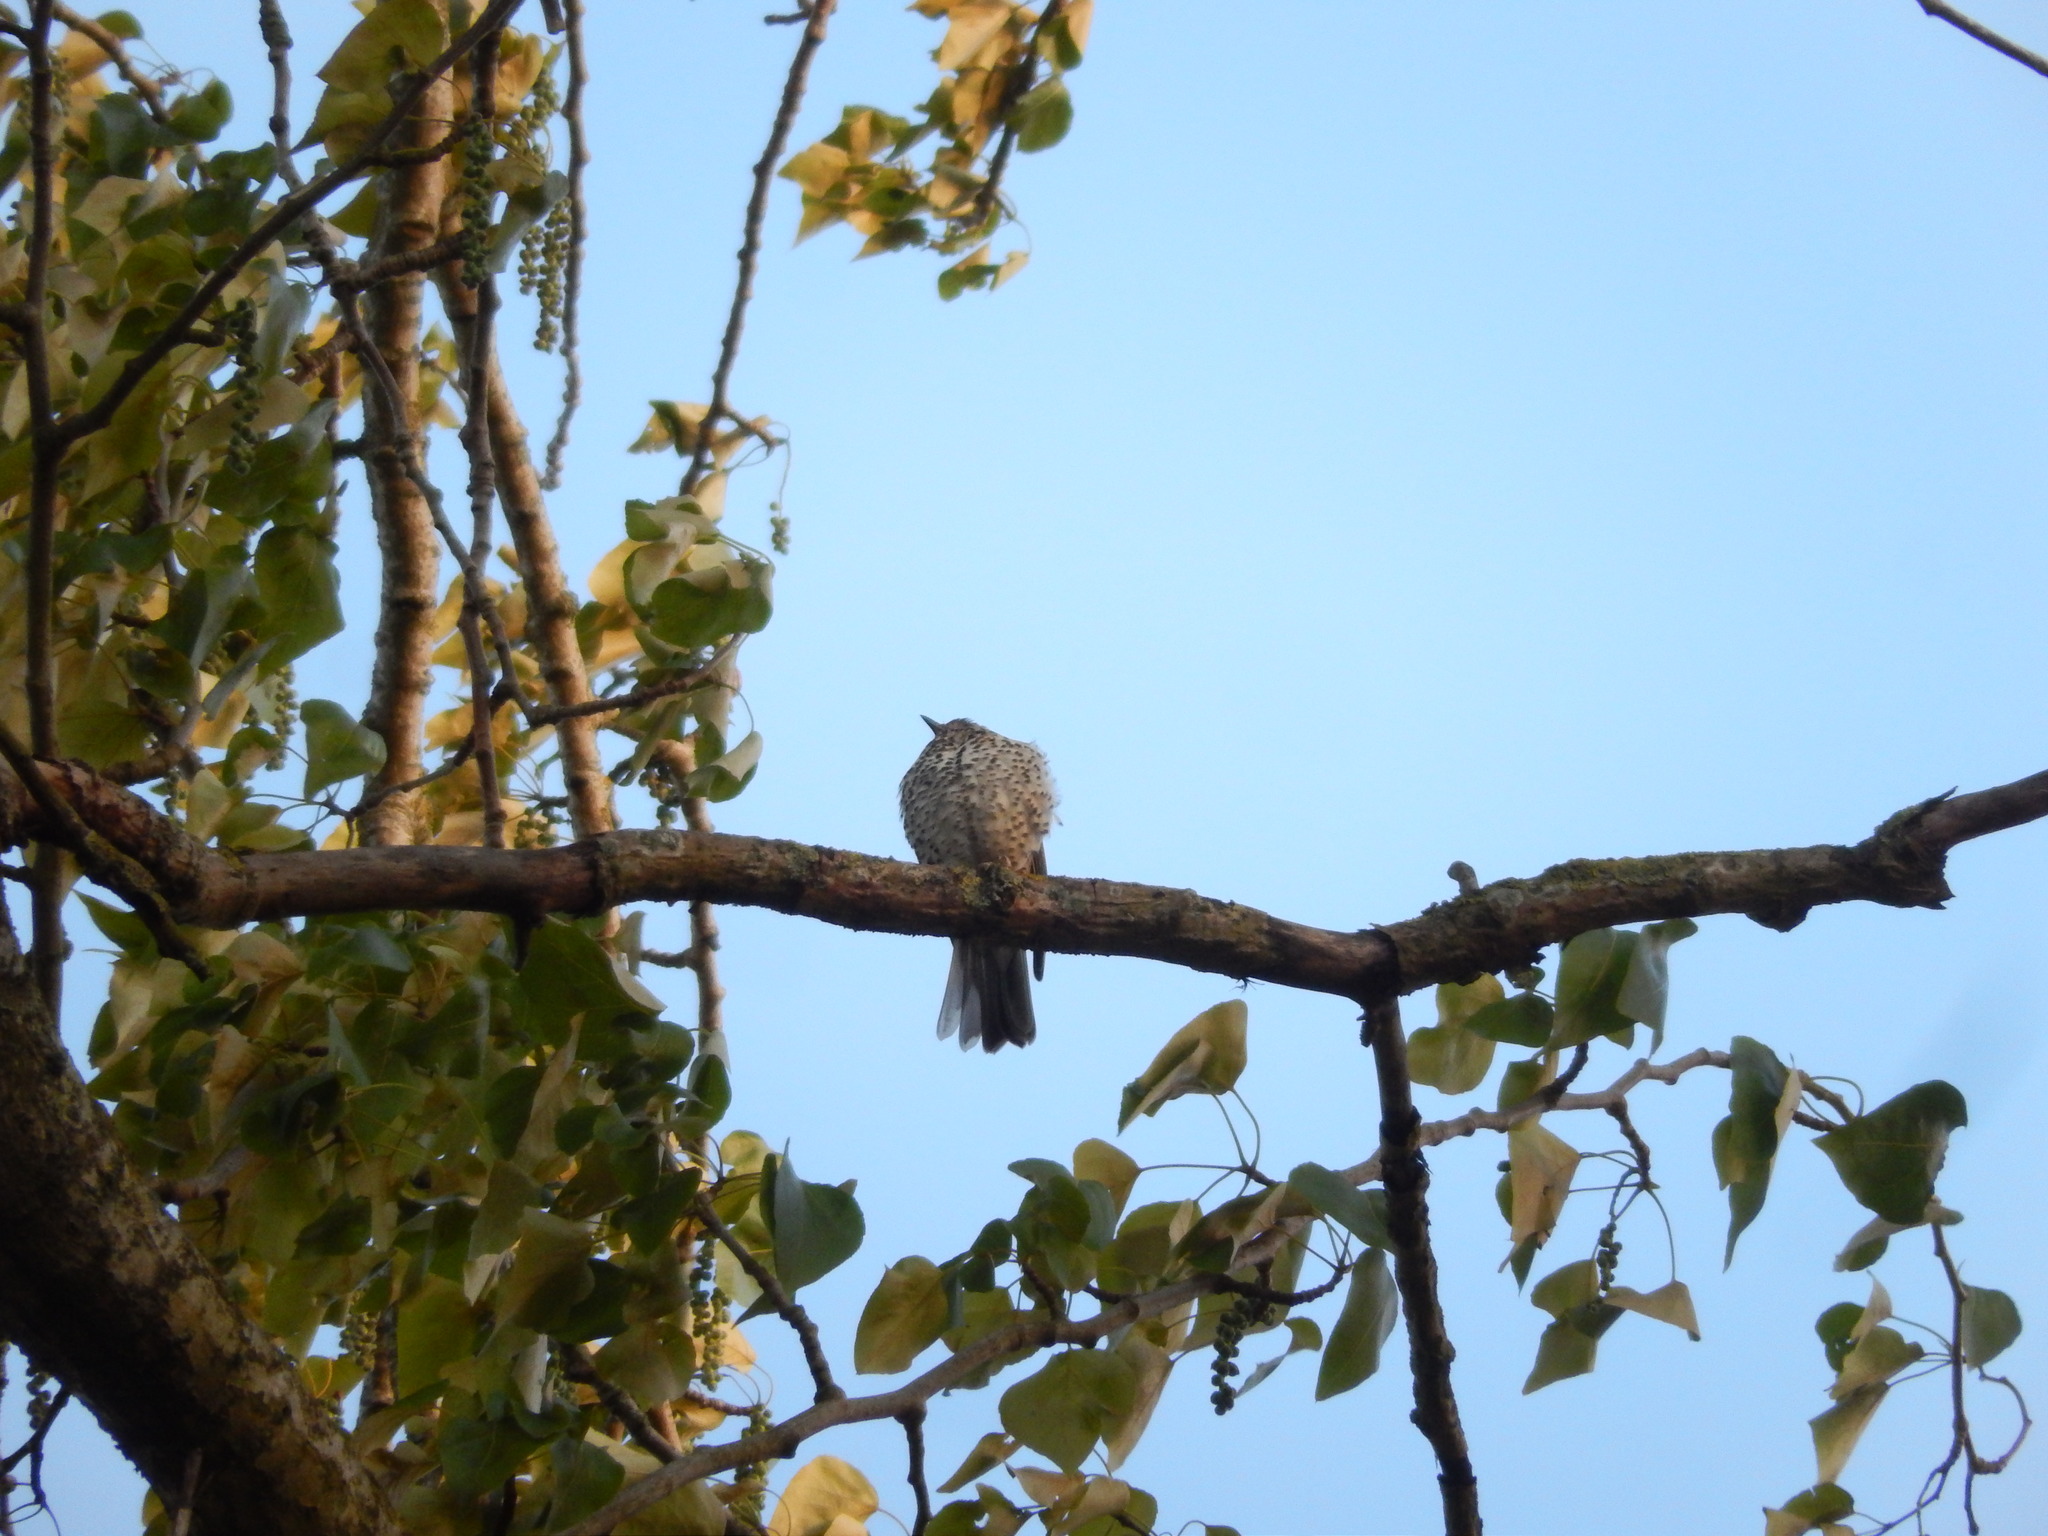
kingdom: Animalia
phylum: Chordata
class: Aves
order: Passeriformes
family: Turdidae
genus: Turdus
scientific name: Turdus viscivorus
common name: Mistle thrush
